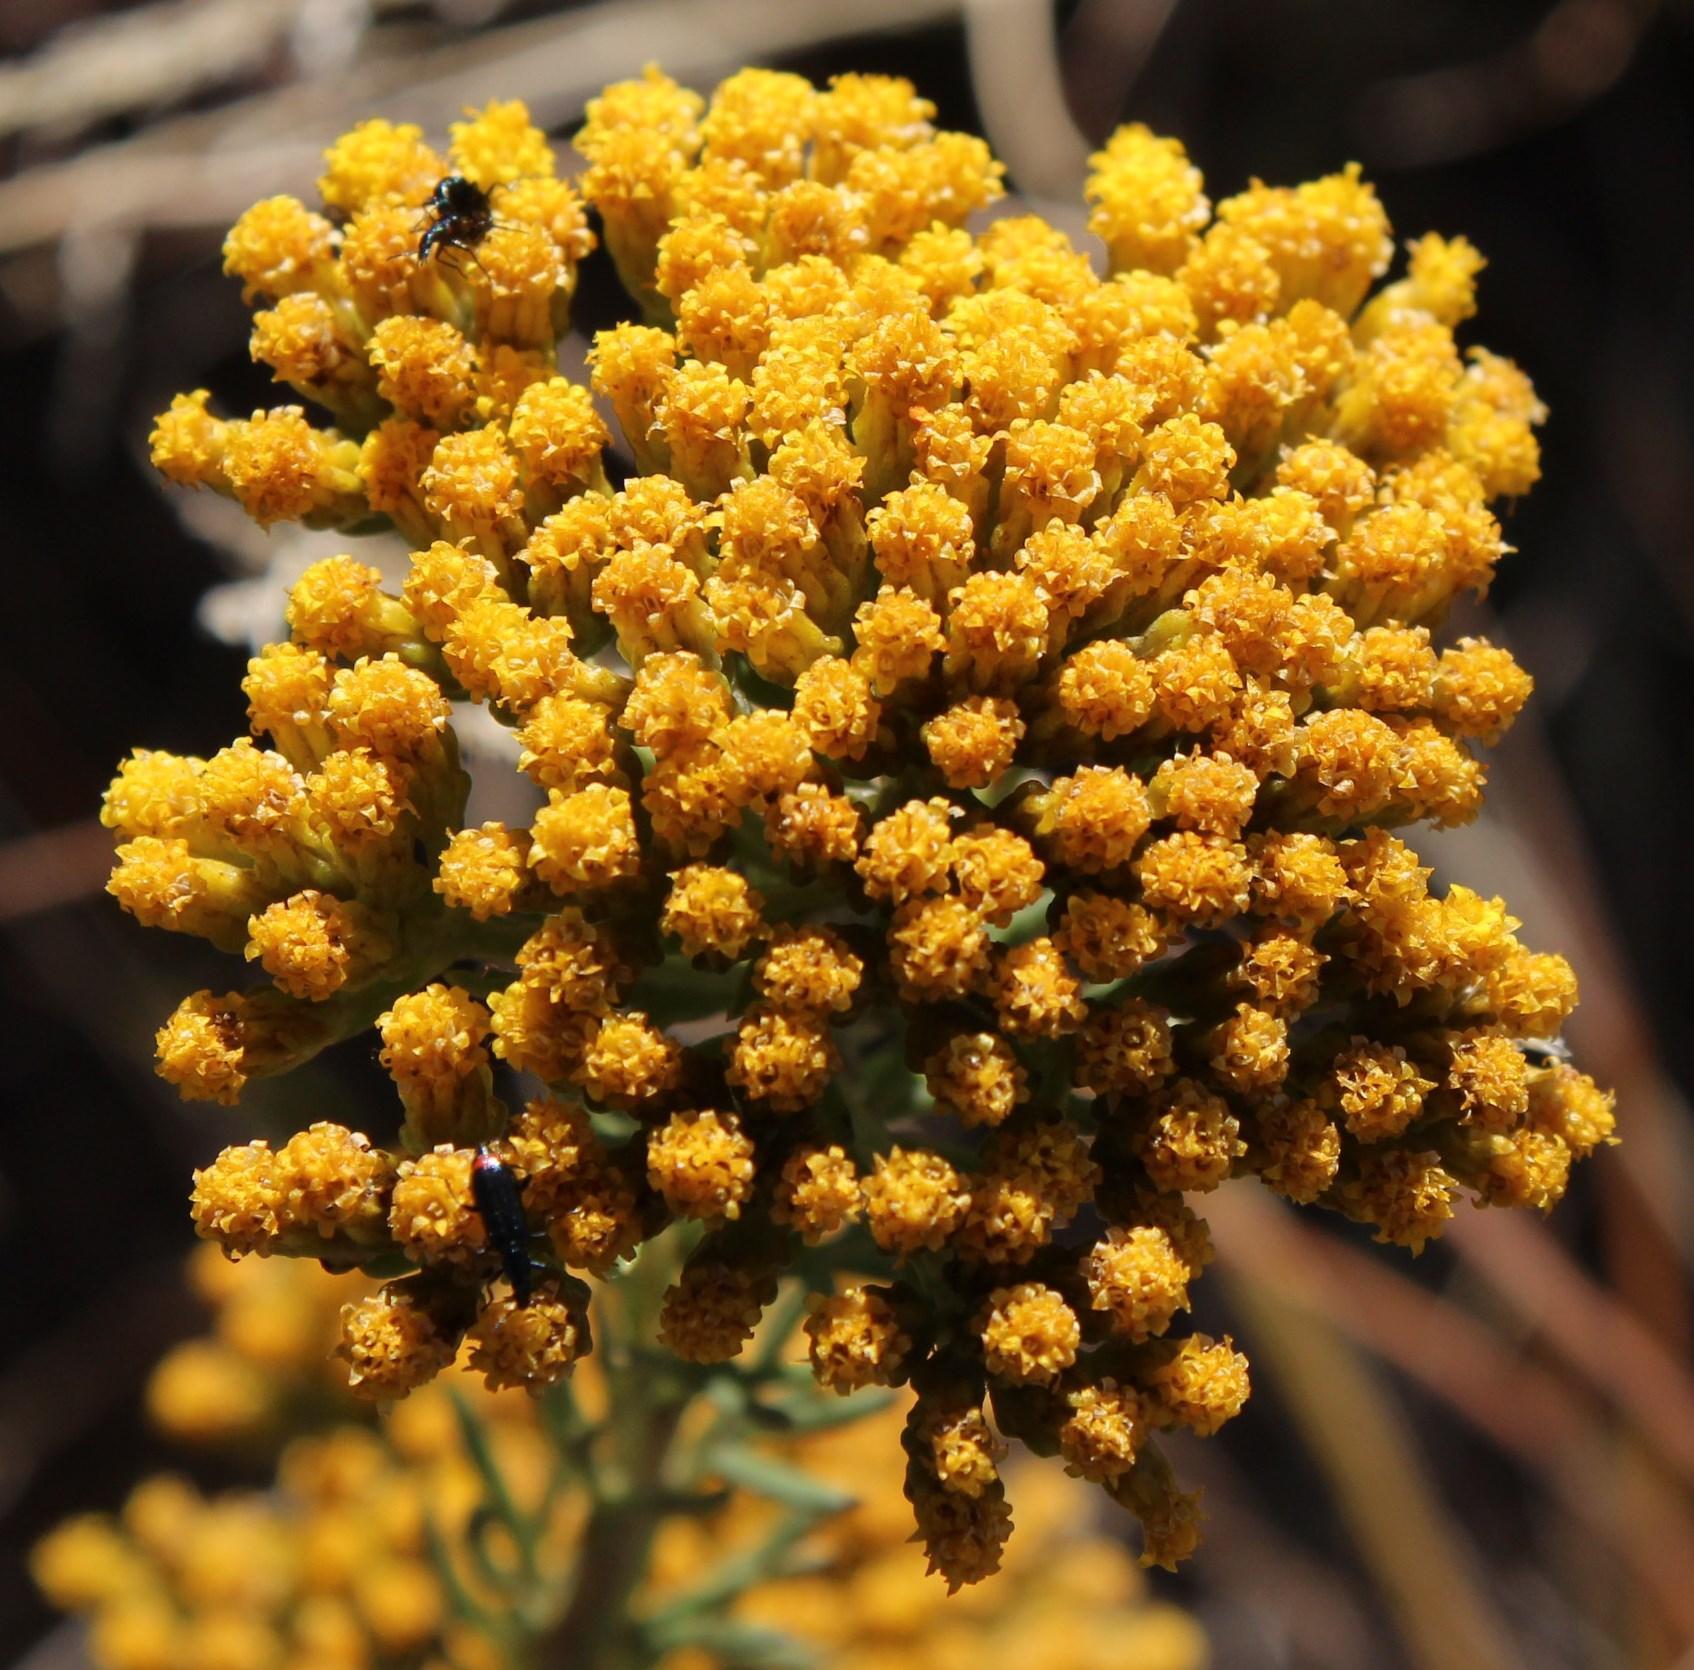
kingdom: Plantae
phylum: Tracheophyta
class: Magnoliopsida
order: Asterales
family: Asteraceae
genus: Phymaspermum
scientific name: Phymaspermum acerosum
